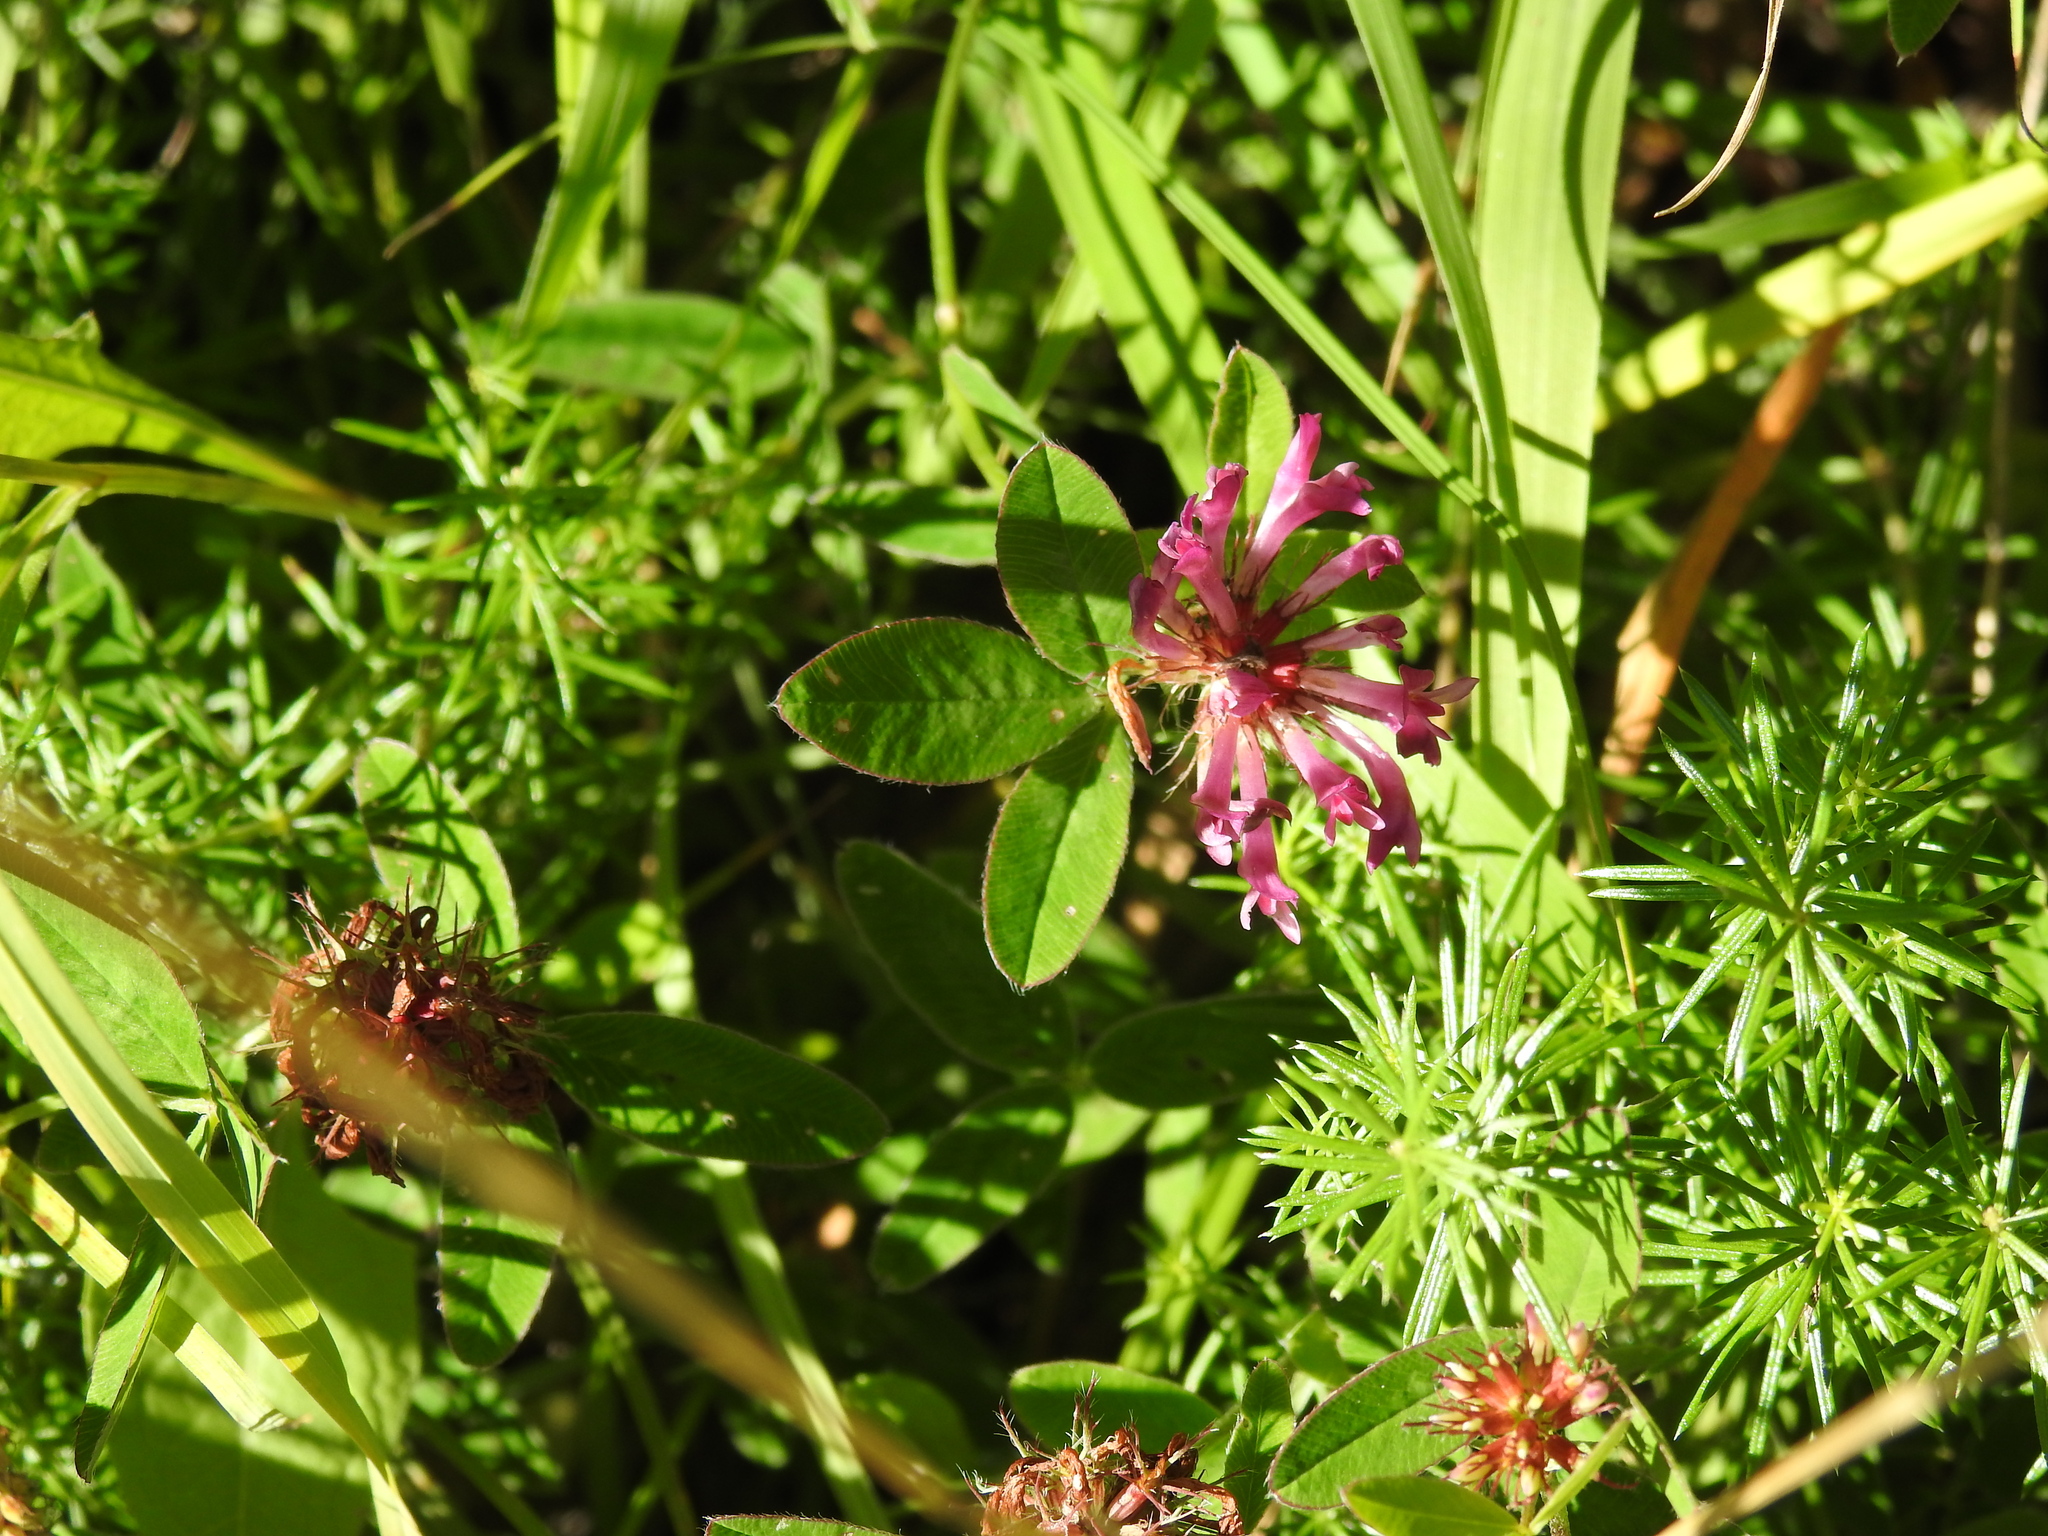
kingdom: Plantae
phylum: Tracheophyta
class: Magnoliopsida
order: Fabales
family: Fabaceae
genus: Trifolium
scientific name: Trifolium medium
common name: Zigzag clover
